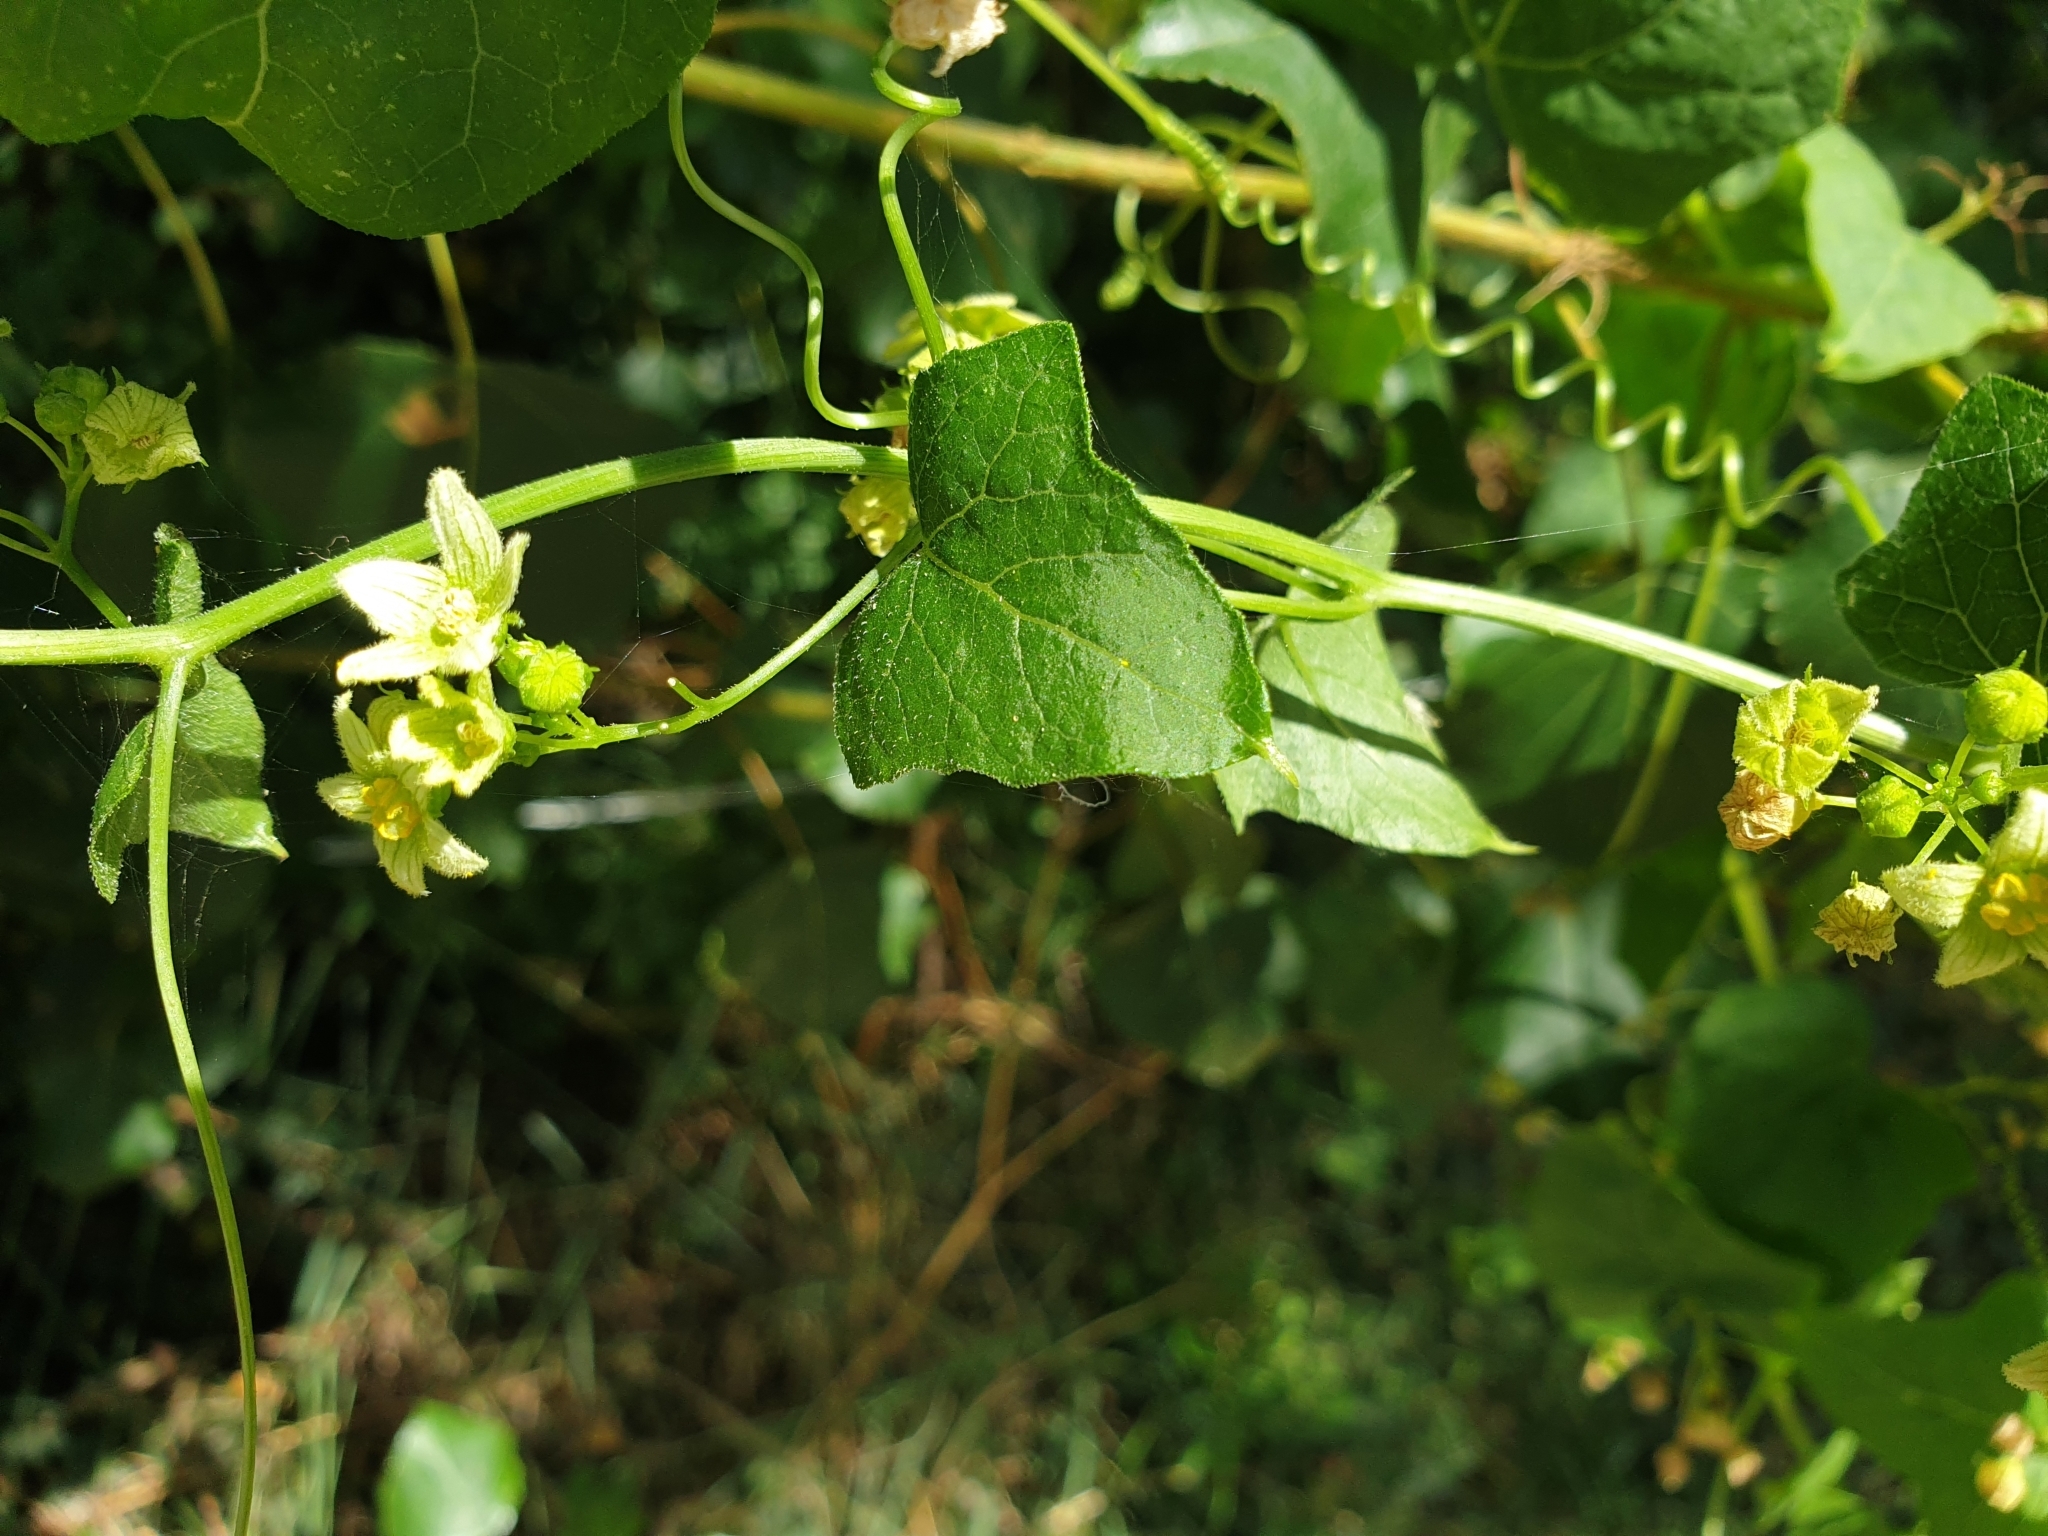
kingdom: Plantae
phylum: Tracheophyta
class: Magnoliopsida
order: Cucurbitales
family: Cucurbitaceae
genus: Bryonia
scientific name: Bryonia cretica
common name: Cretan bryony
